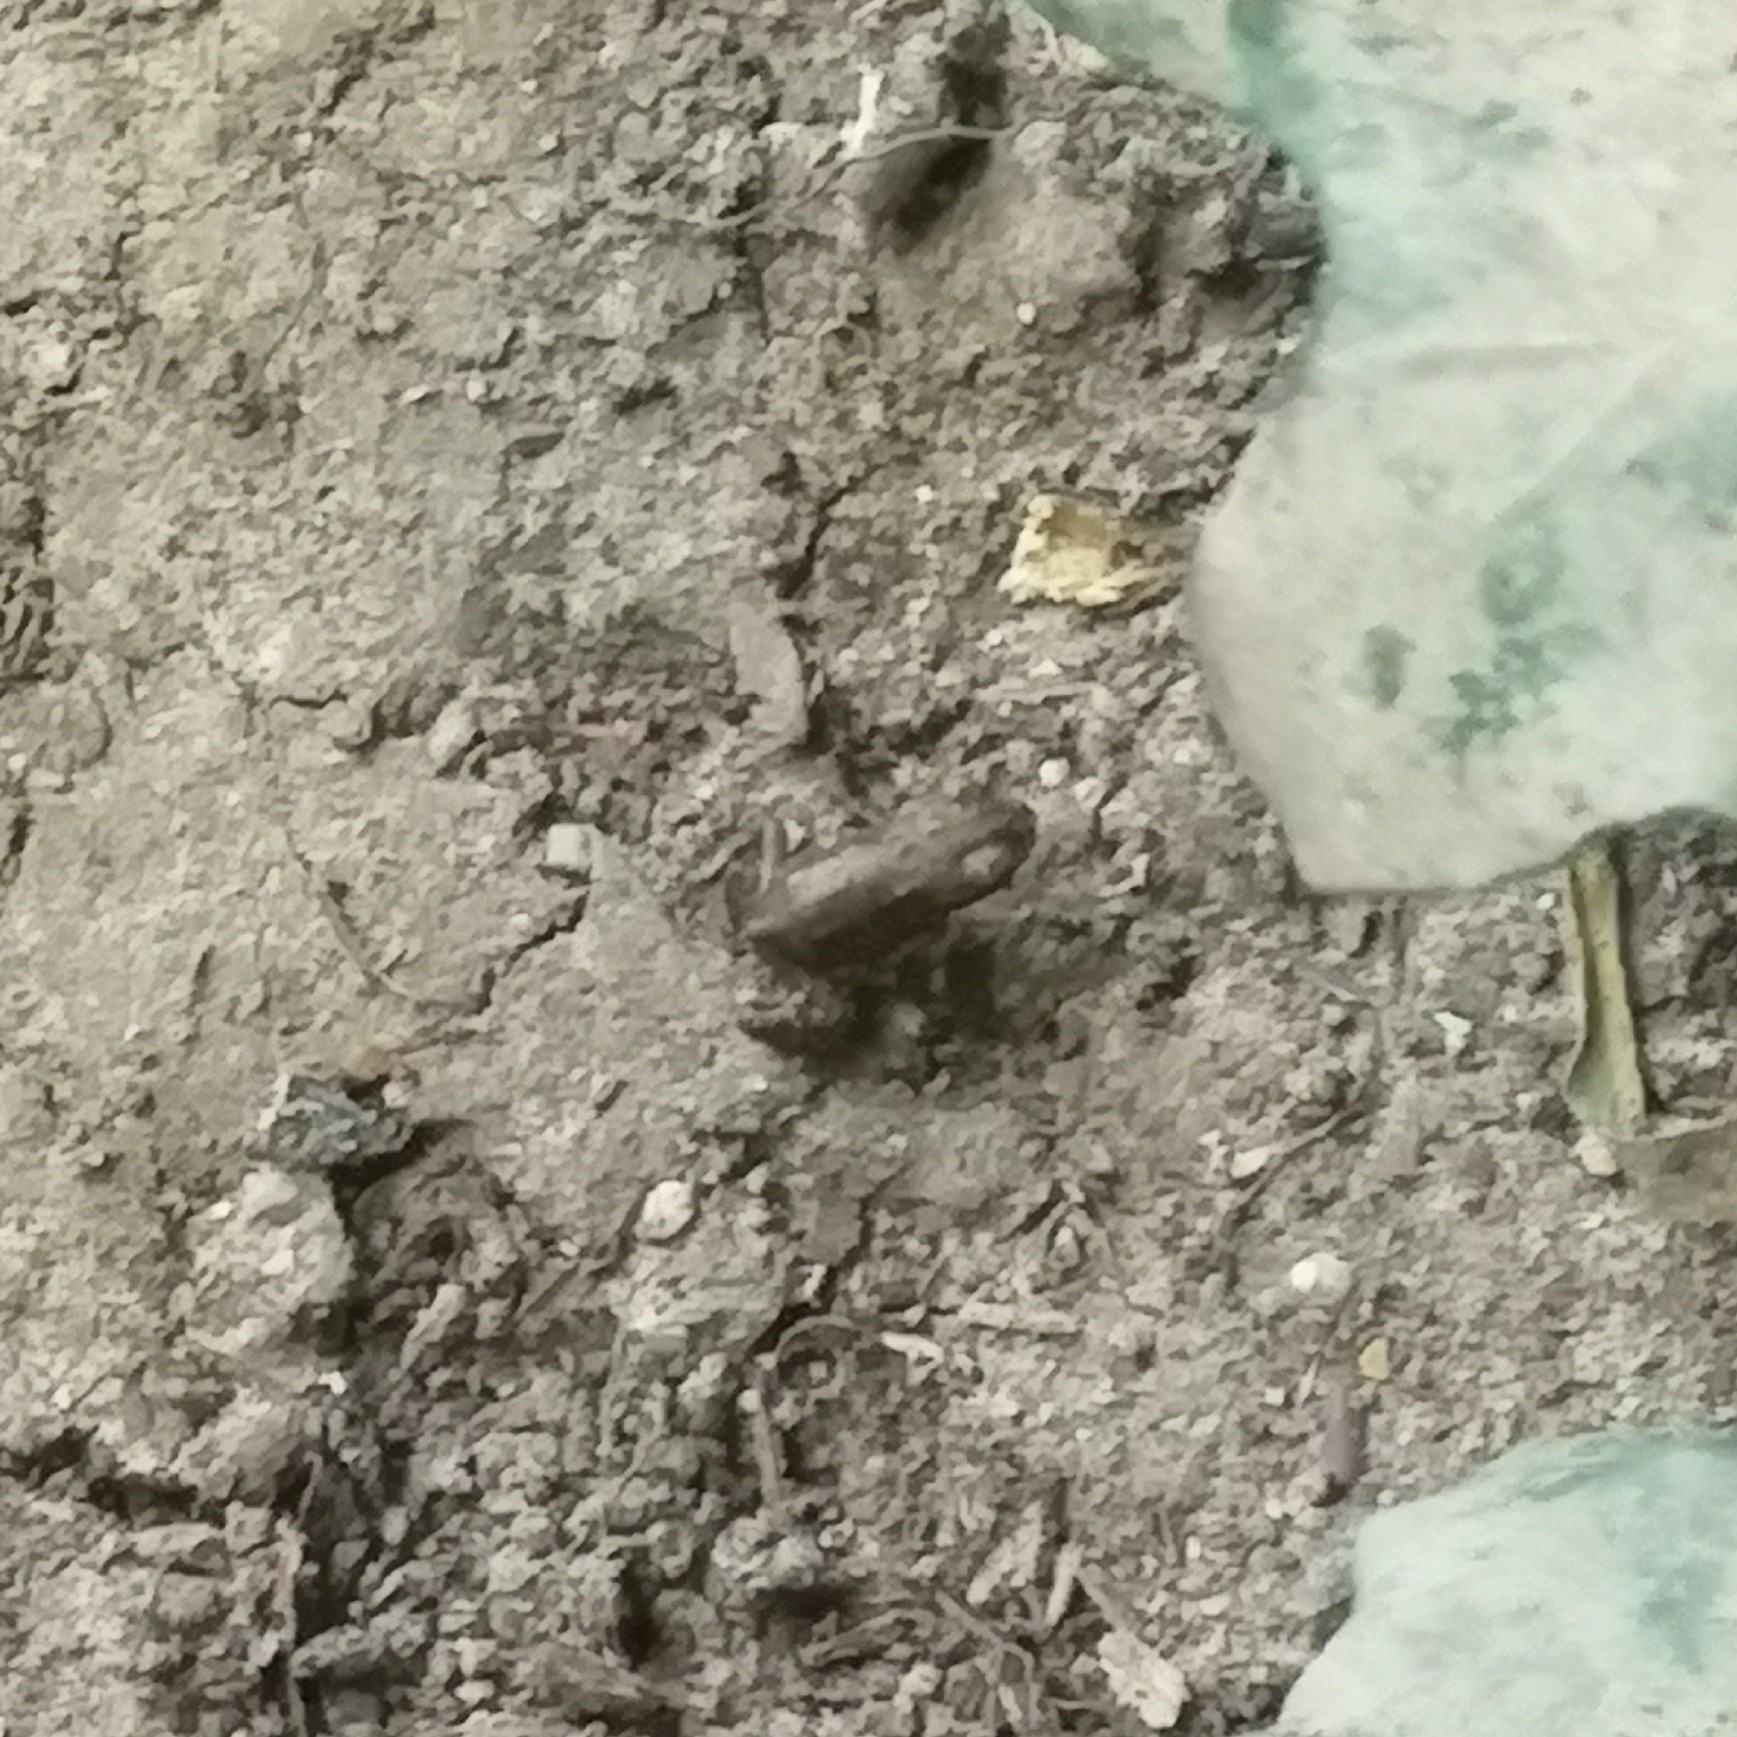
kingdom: Animalia
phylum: Chordata
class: Amphibia
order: Anura
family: Bufonidae
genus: Bufo
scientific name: Bufo bufo
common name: Common toad
